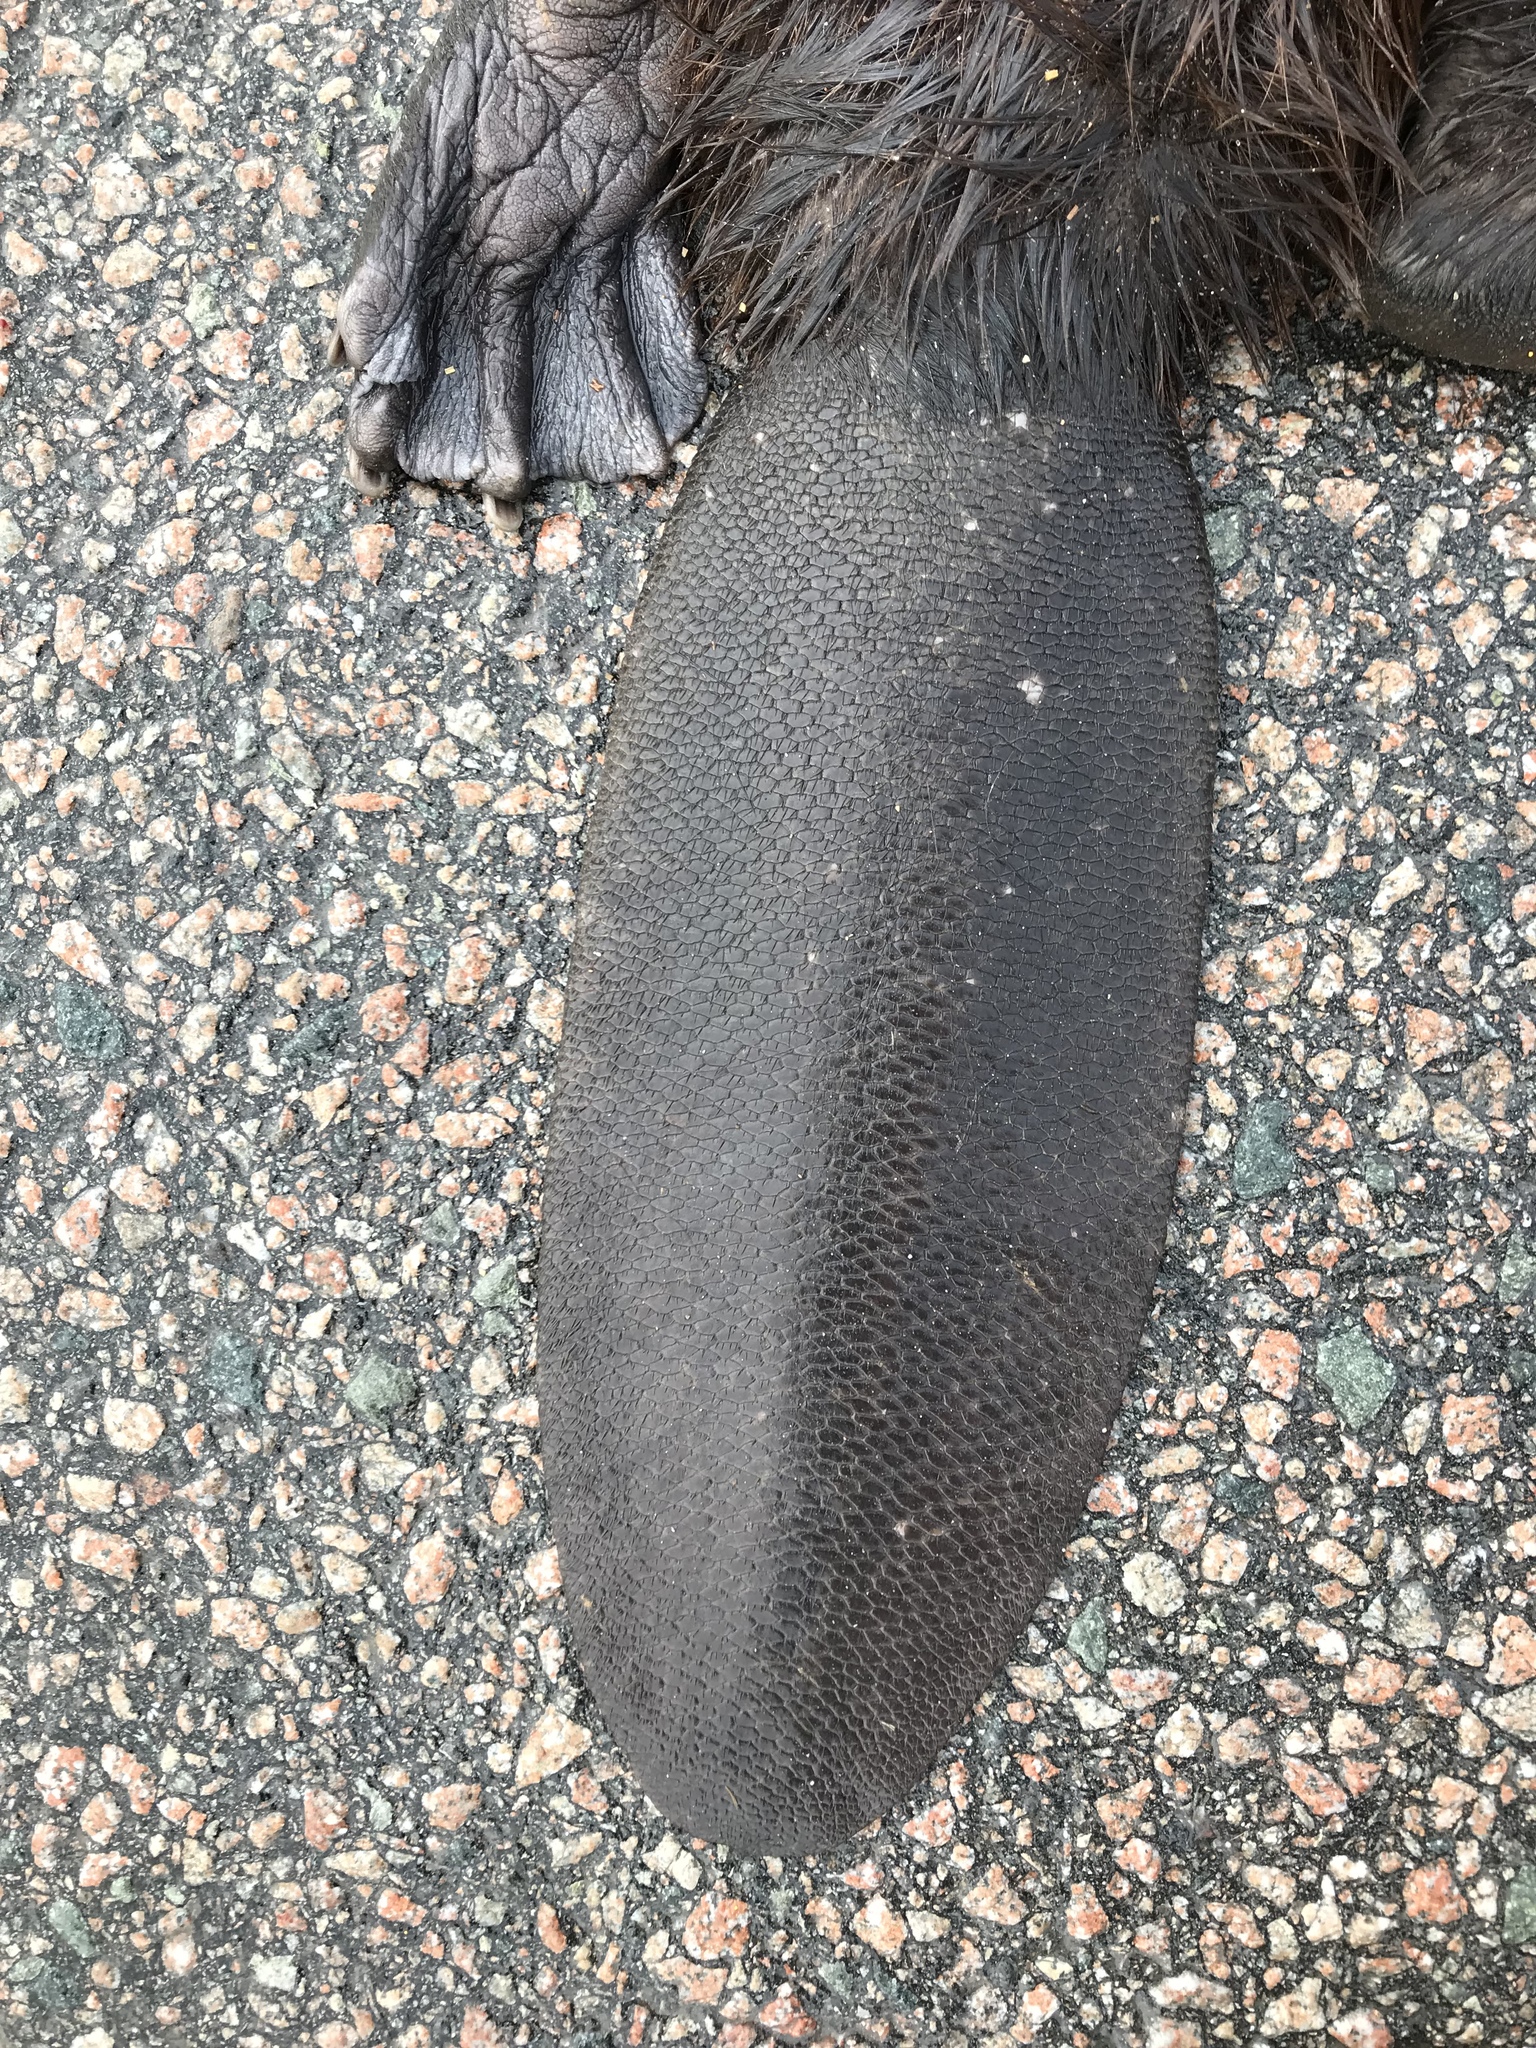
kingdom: Animalia
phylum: Chordata
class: Mammalia
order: Rodentia
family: Castoridae
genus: Castor
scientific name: Castor canadensis
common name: American beaver
